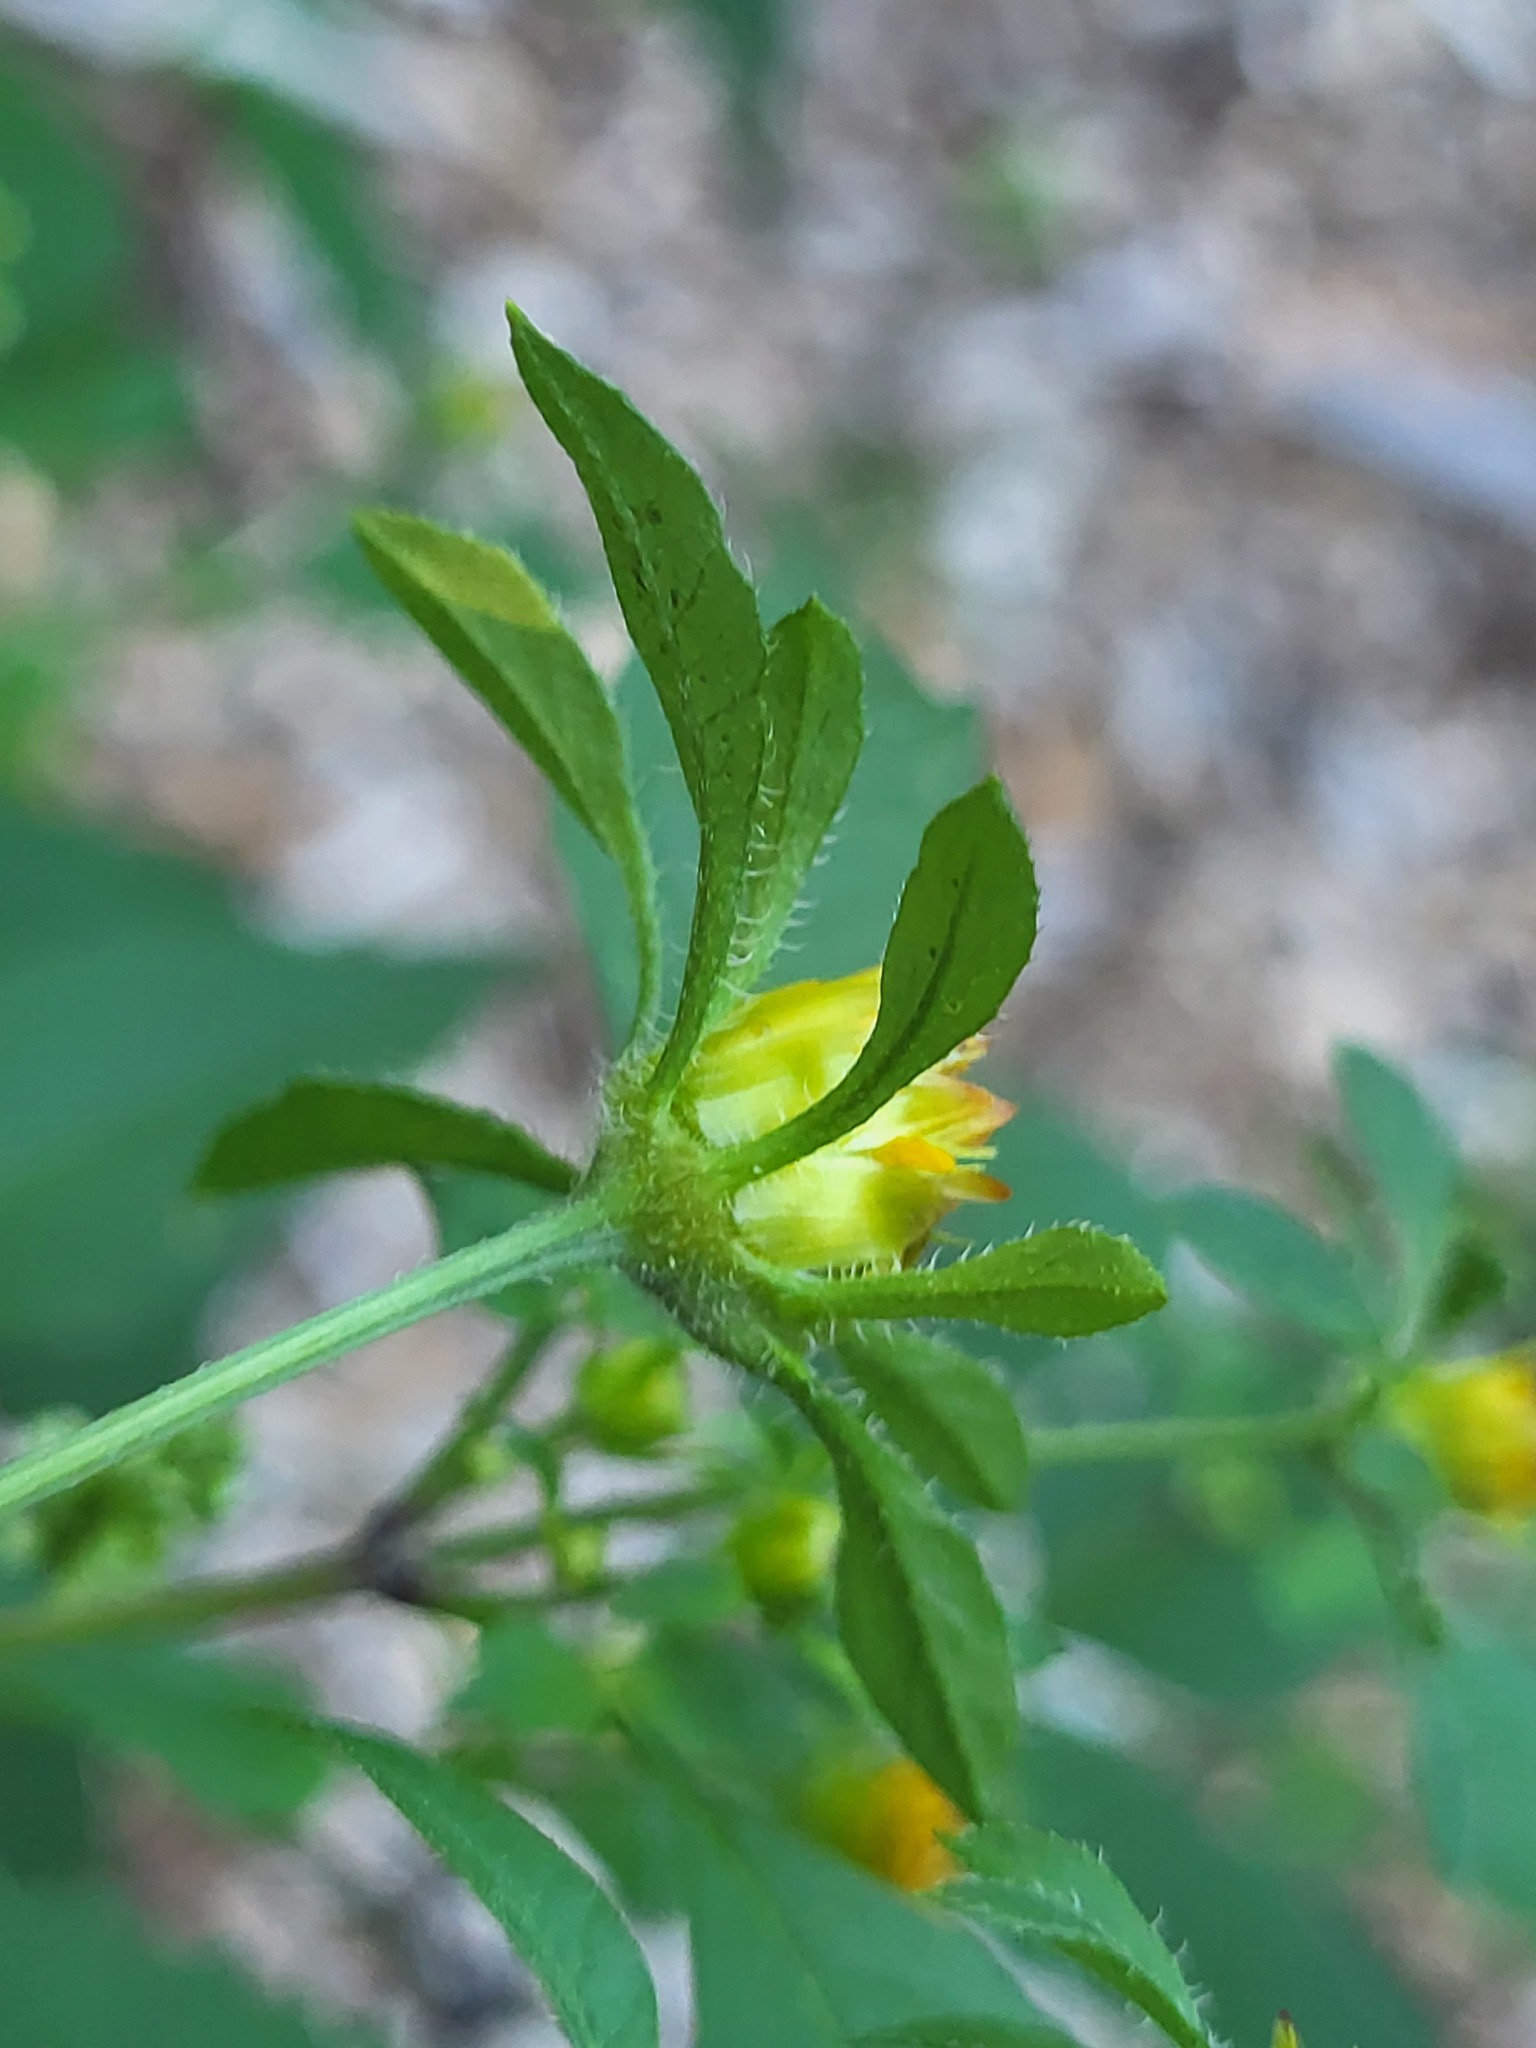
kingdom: Plantae
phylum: Tracheophyta
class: Magnoliopsida
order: Asterales
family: Asteraceae
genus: Bidens
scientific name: Bidens frondosa
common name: Beggarticks
